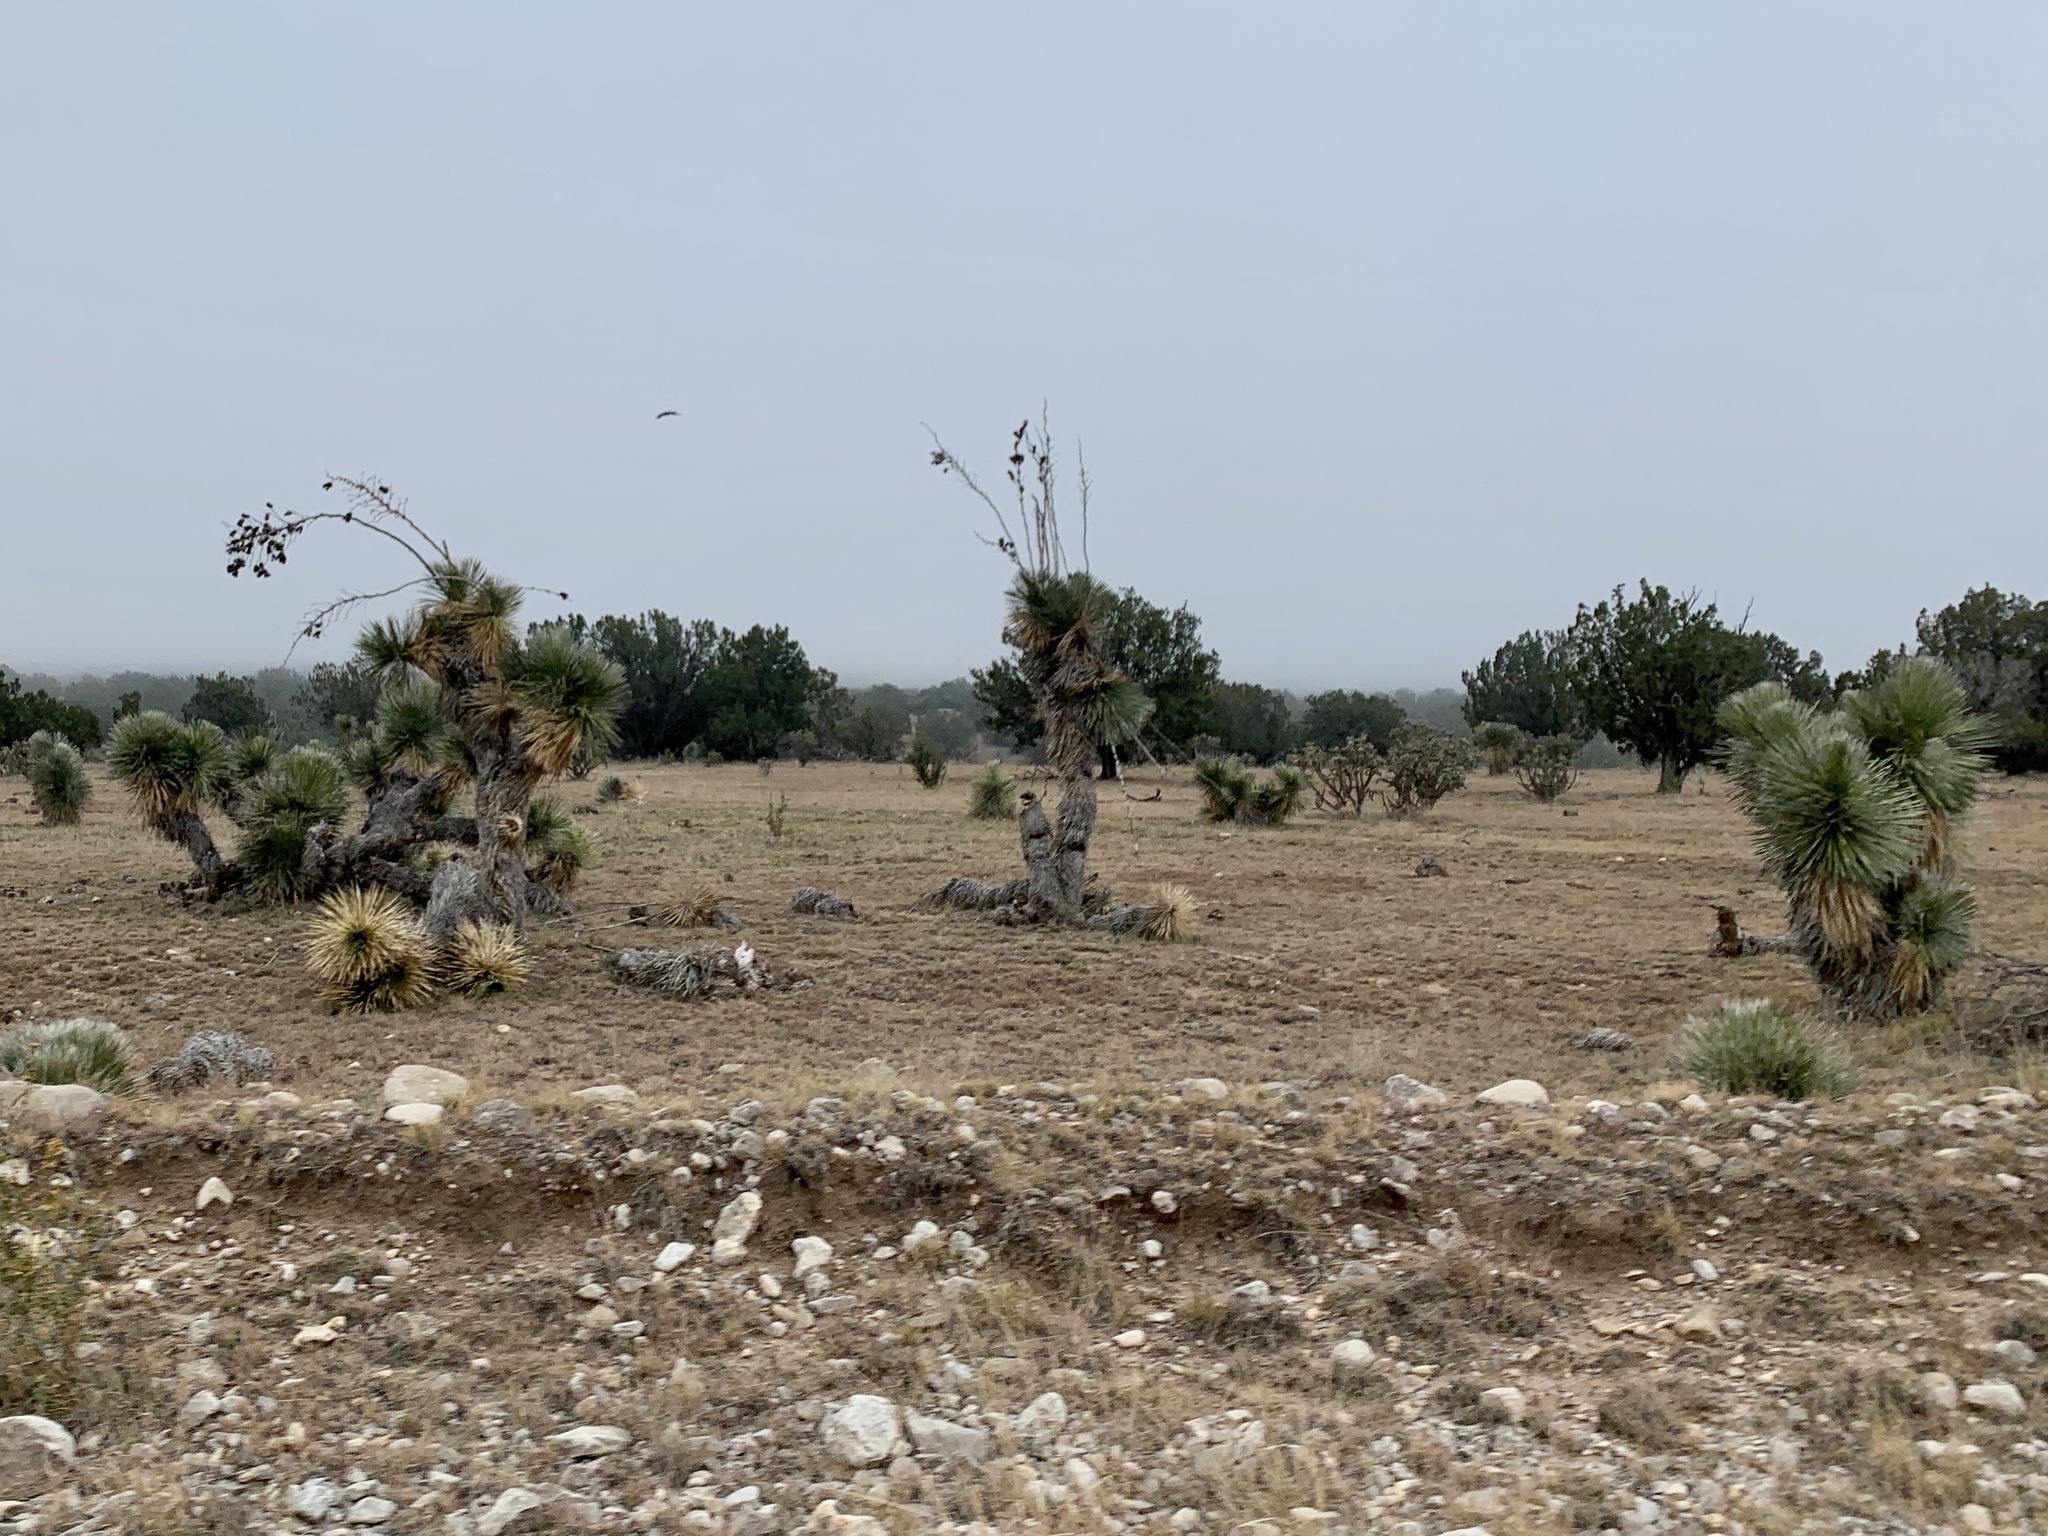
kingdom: Plantae
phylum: Tracheophyta
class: Liliopsida
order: Asparagales
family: Asparagaceae
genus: Yucca
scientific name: Yucca elata
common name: Palmella
